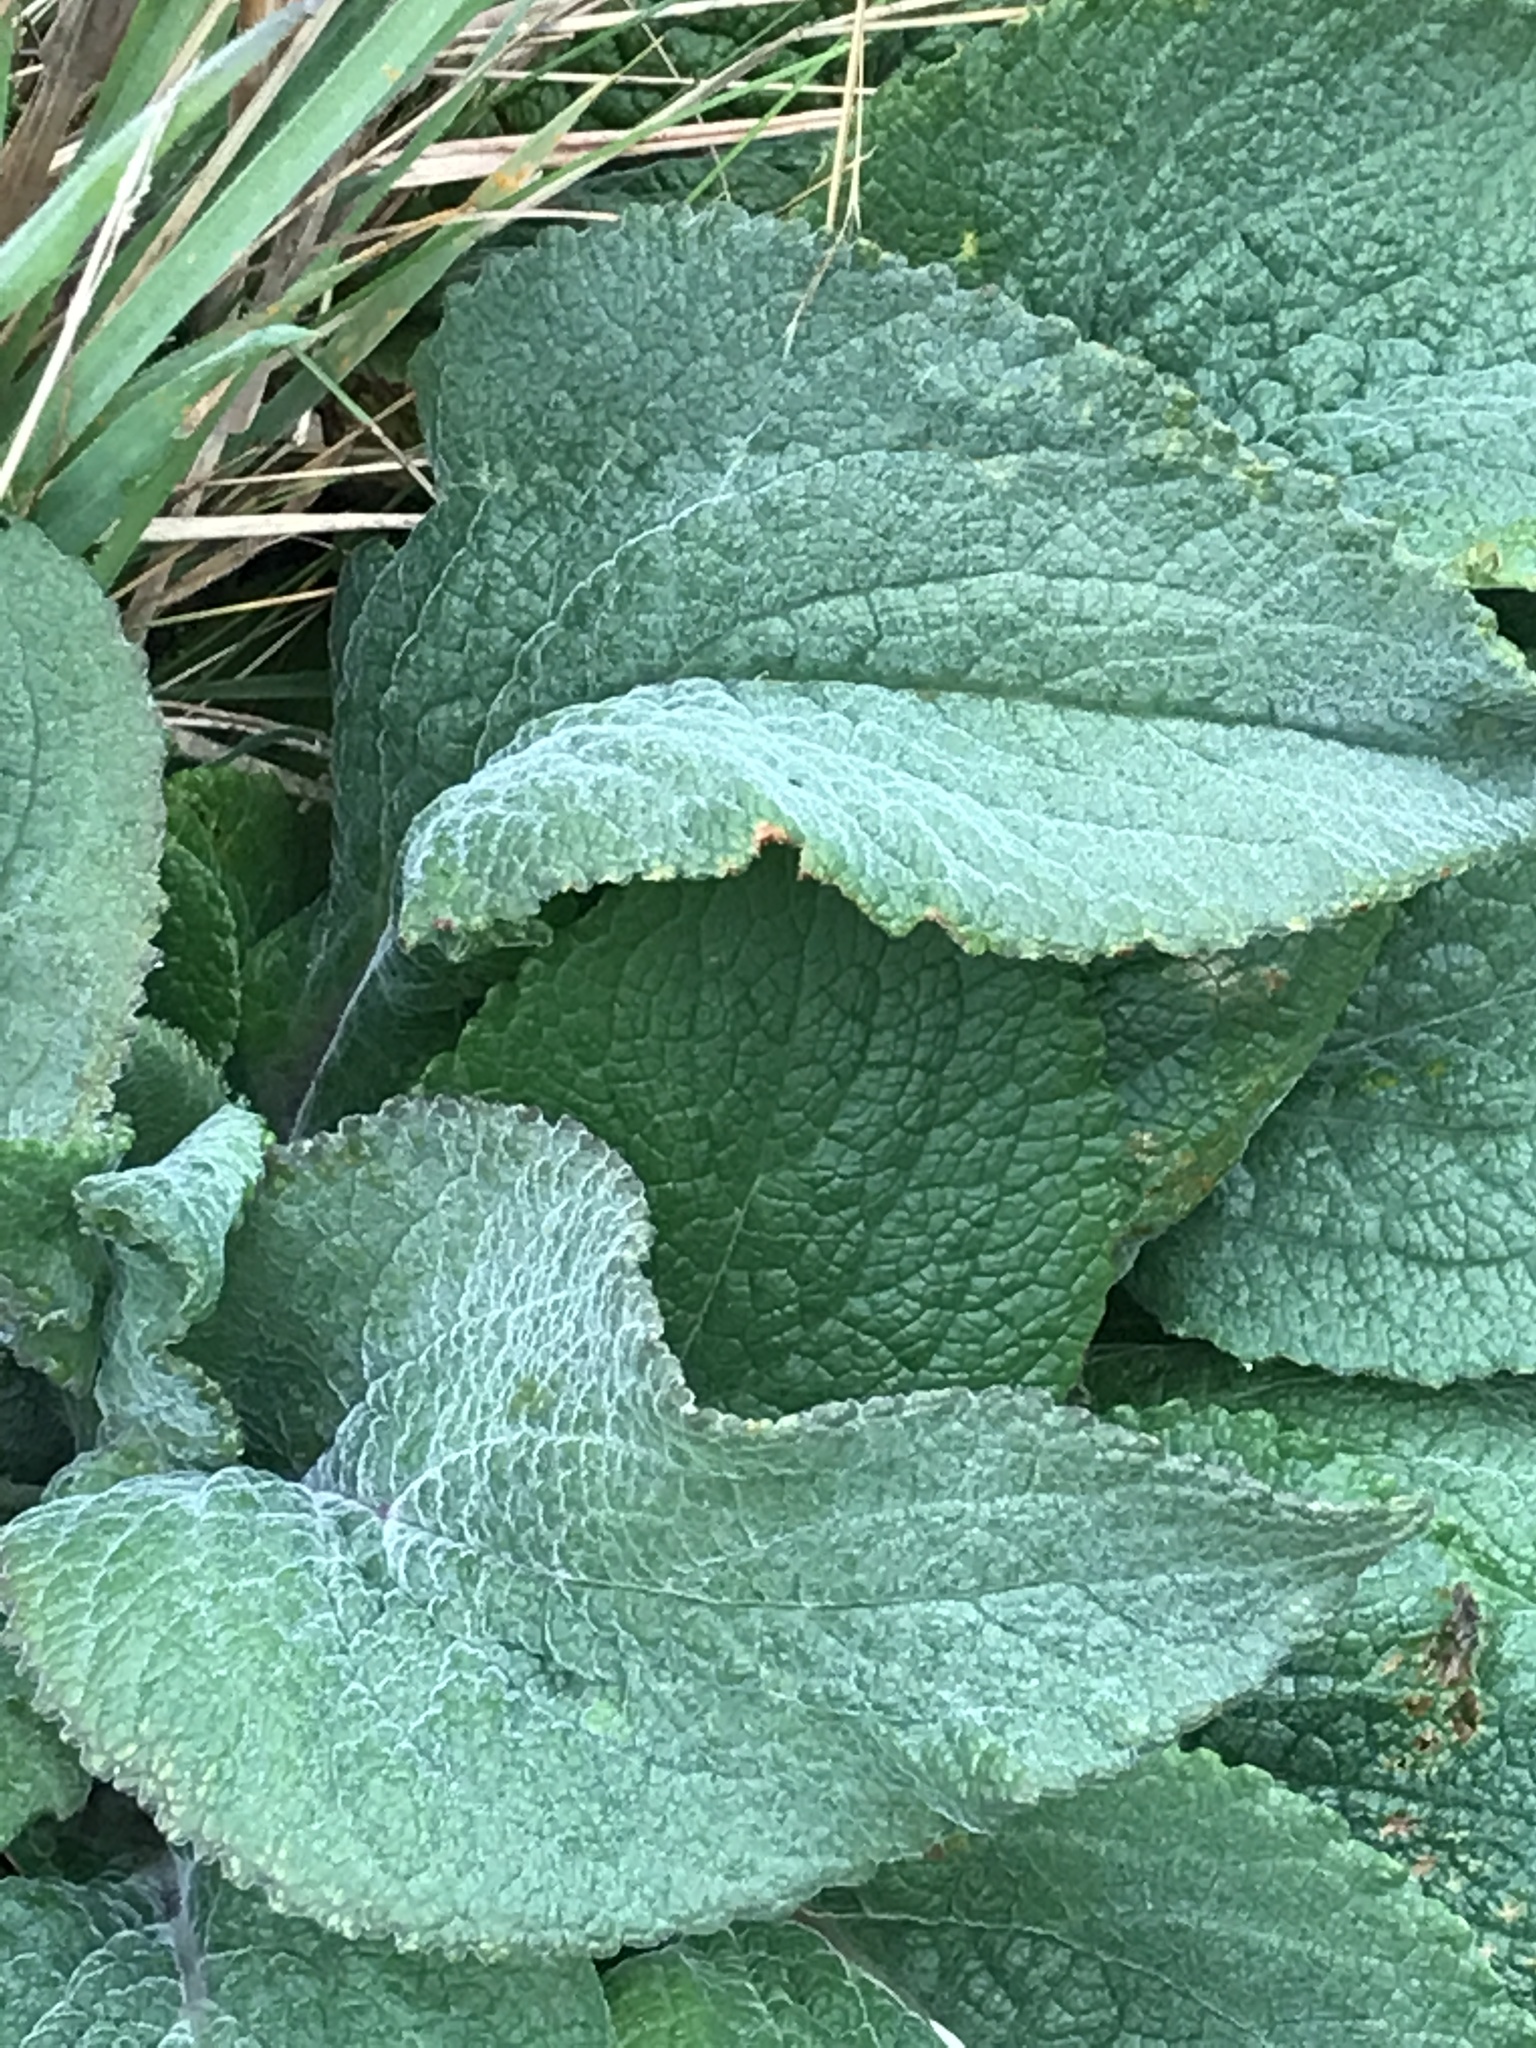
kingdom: Plantae
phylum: Tracheophyta
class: Magnoliopsida
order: Lamiales
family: Plantaginaceae
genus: Digitalis
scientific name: Digitalis purpurea
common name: Foxglove
